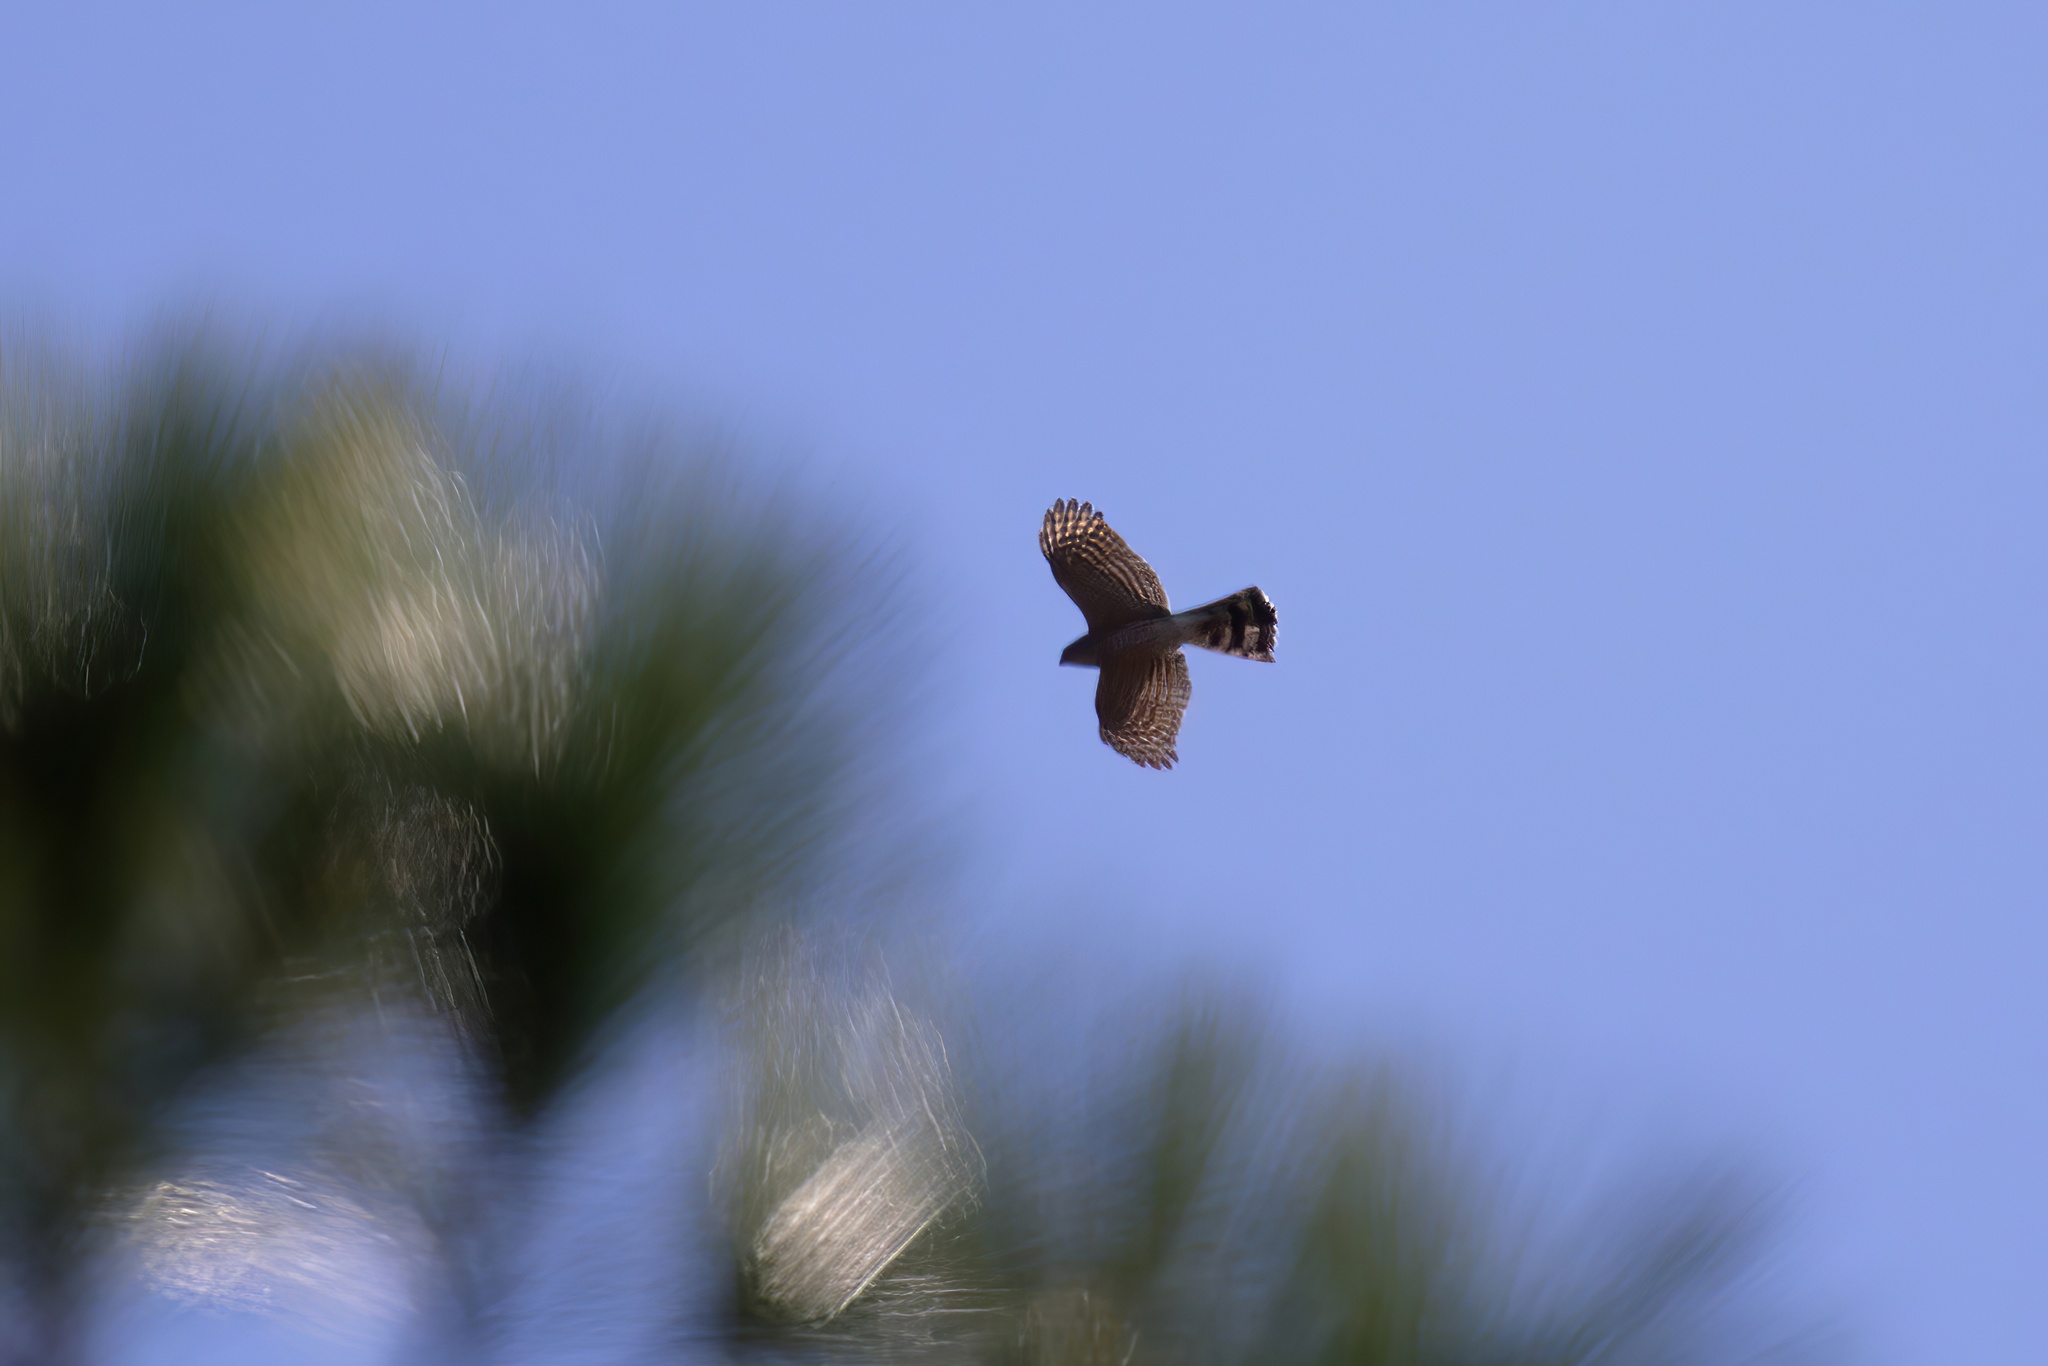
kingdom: Animalia
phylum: Chordata
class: Aves
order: Accipitriformes
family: Accipitridae
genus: Accipiter
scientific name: Accipiter striatus
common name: Sharp-shinned hawk
